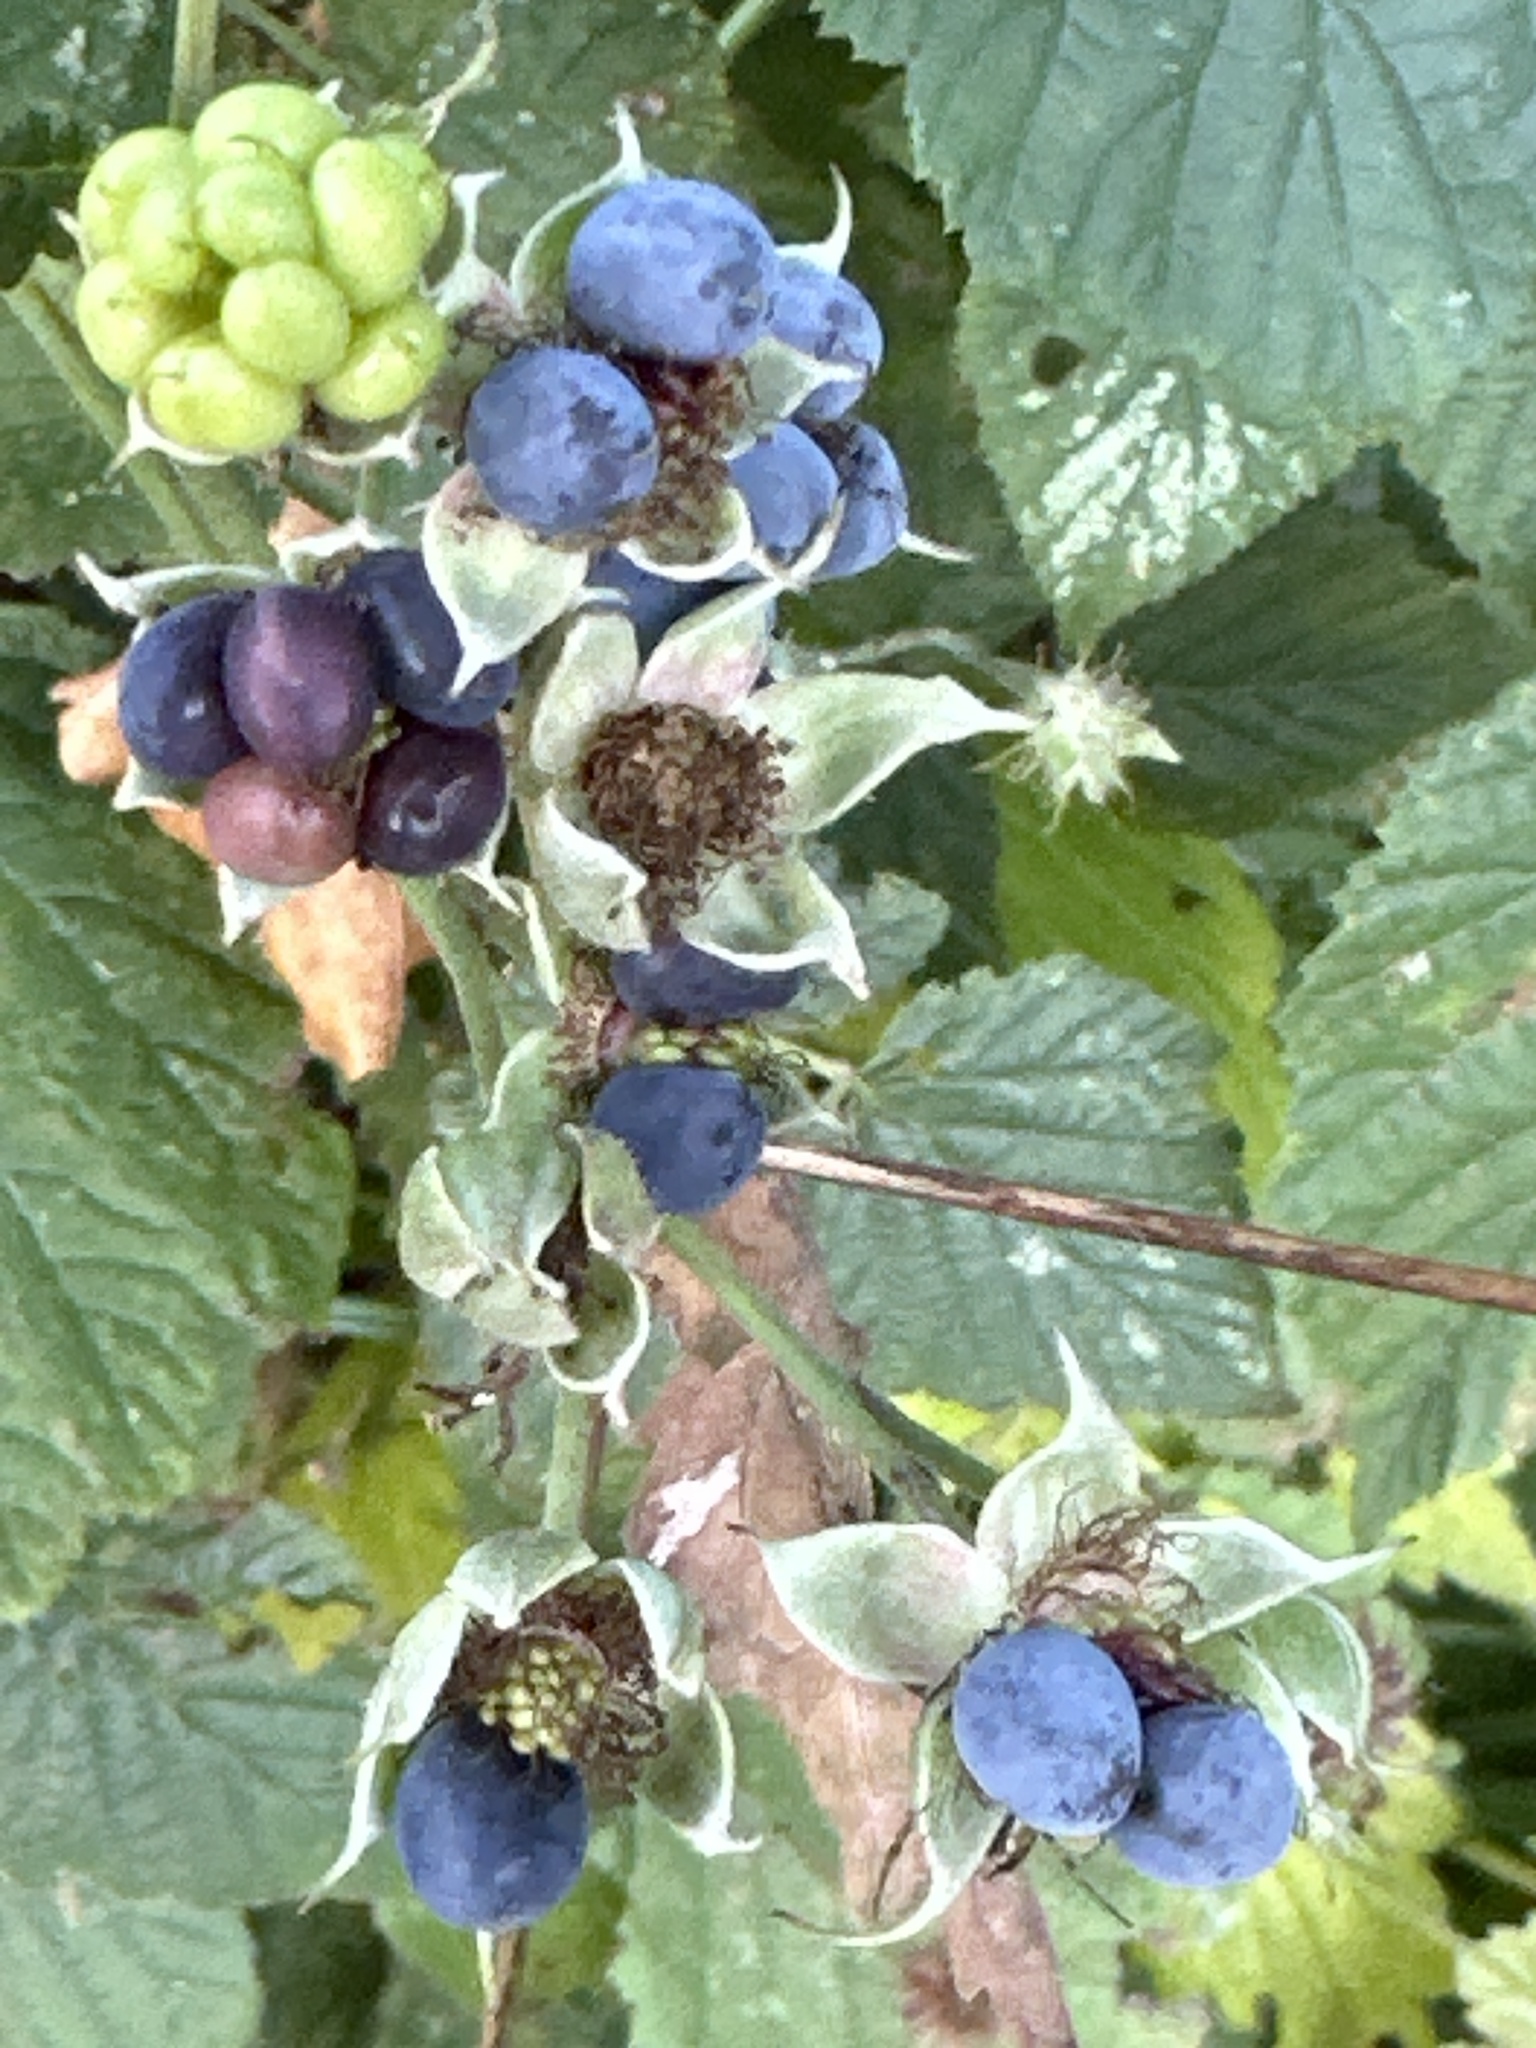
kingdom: Plantae
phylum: Tracheophyta
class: Magnoliopsida
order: Rosales
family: Rosaceae
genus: Rubus
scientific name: Rubus caesius
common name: Dewberry
